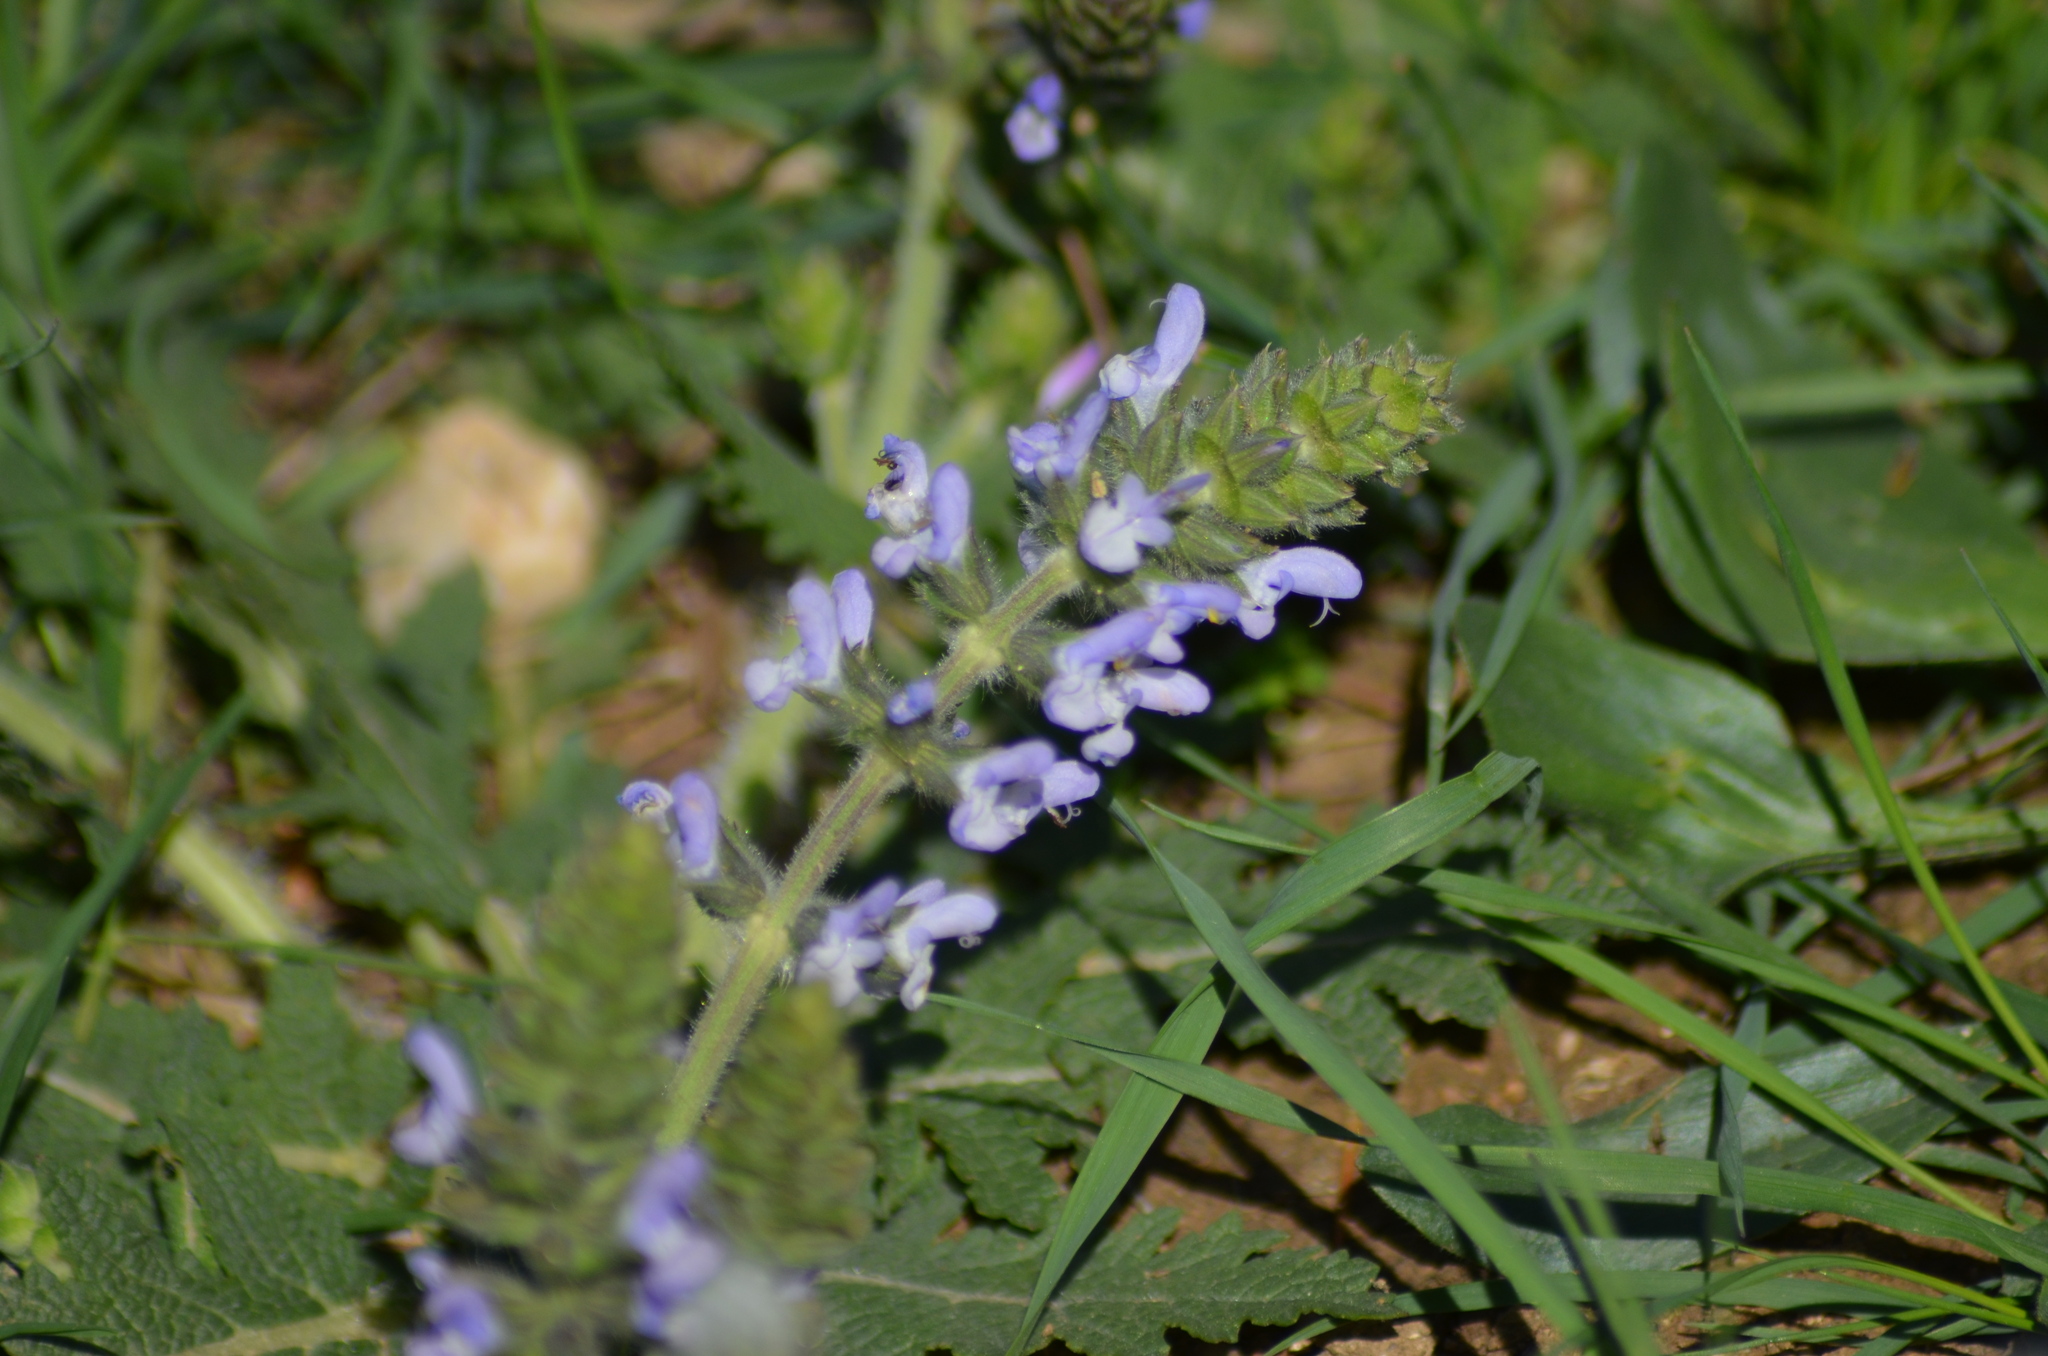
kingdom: Plantae
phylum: Tracheophyta
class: Magnoliopsida
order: Lamiales
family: Lamiaceae
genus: Salvia
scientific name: Salvia verbenaca
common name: Wild clary
